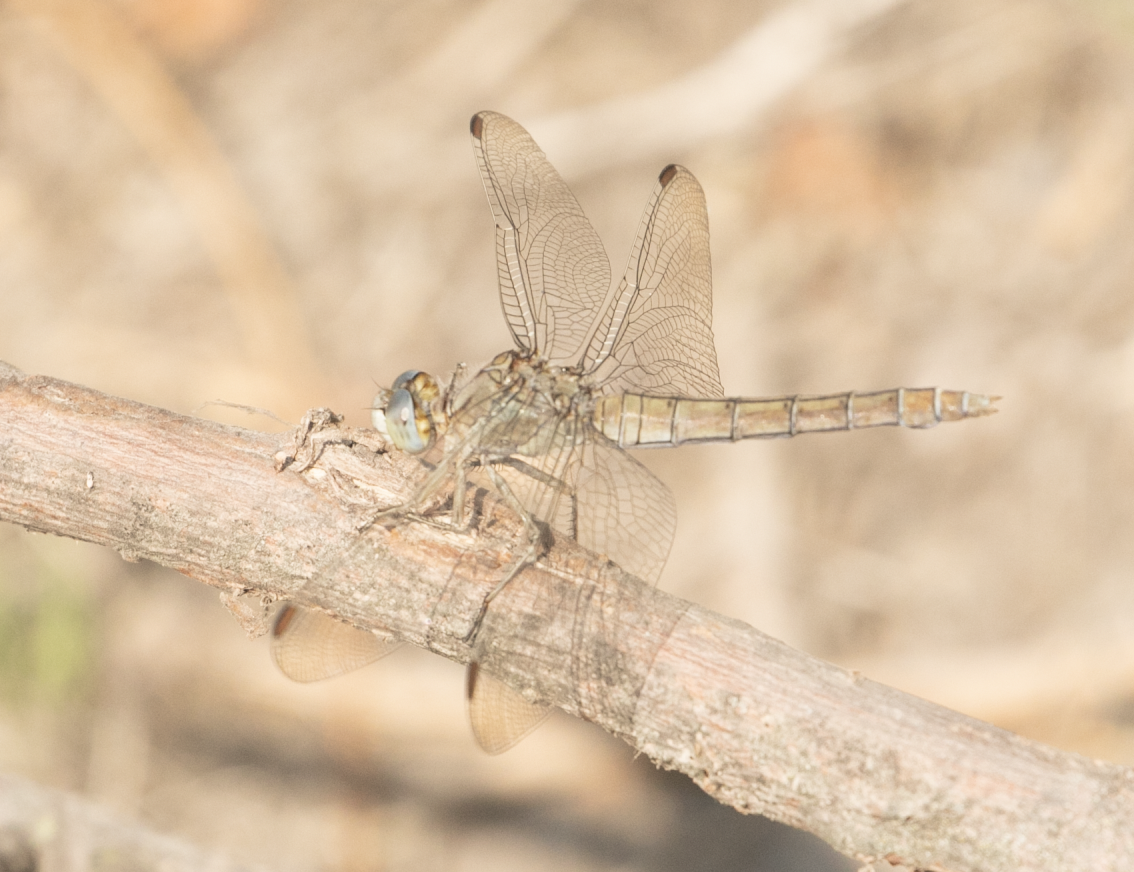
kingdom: Animalia
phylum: Arthropoda
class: Insecta
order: Odonata
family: Libellulidae
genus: Orthetrum
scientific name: Orthetrum brunneum
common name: Southern skimmer
